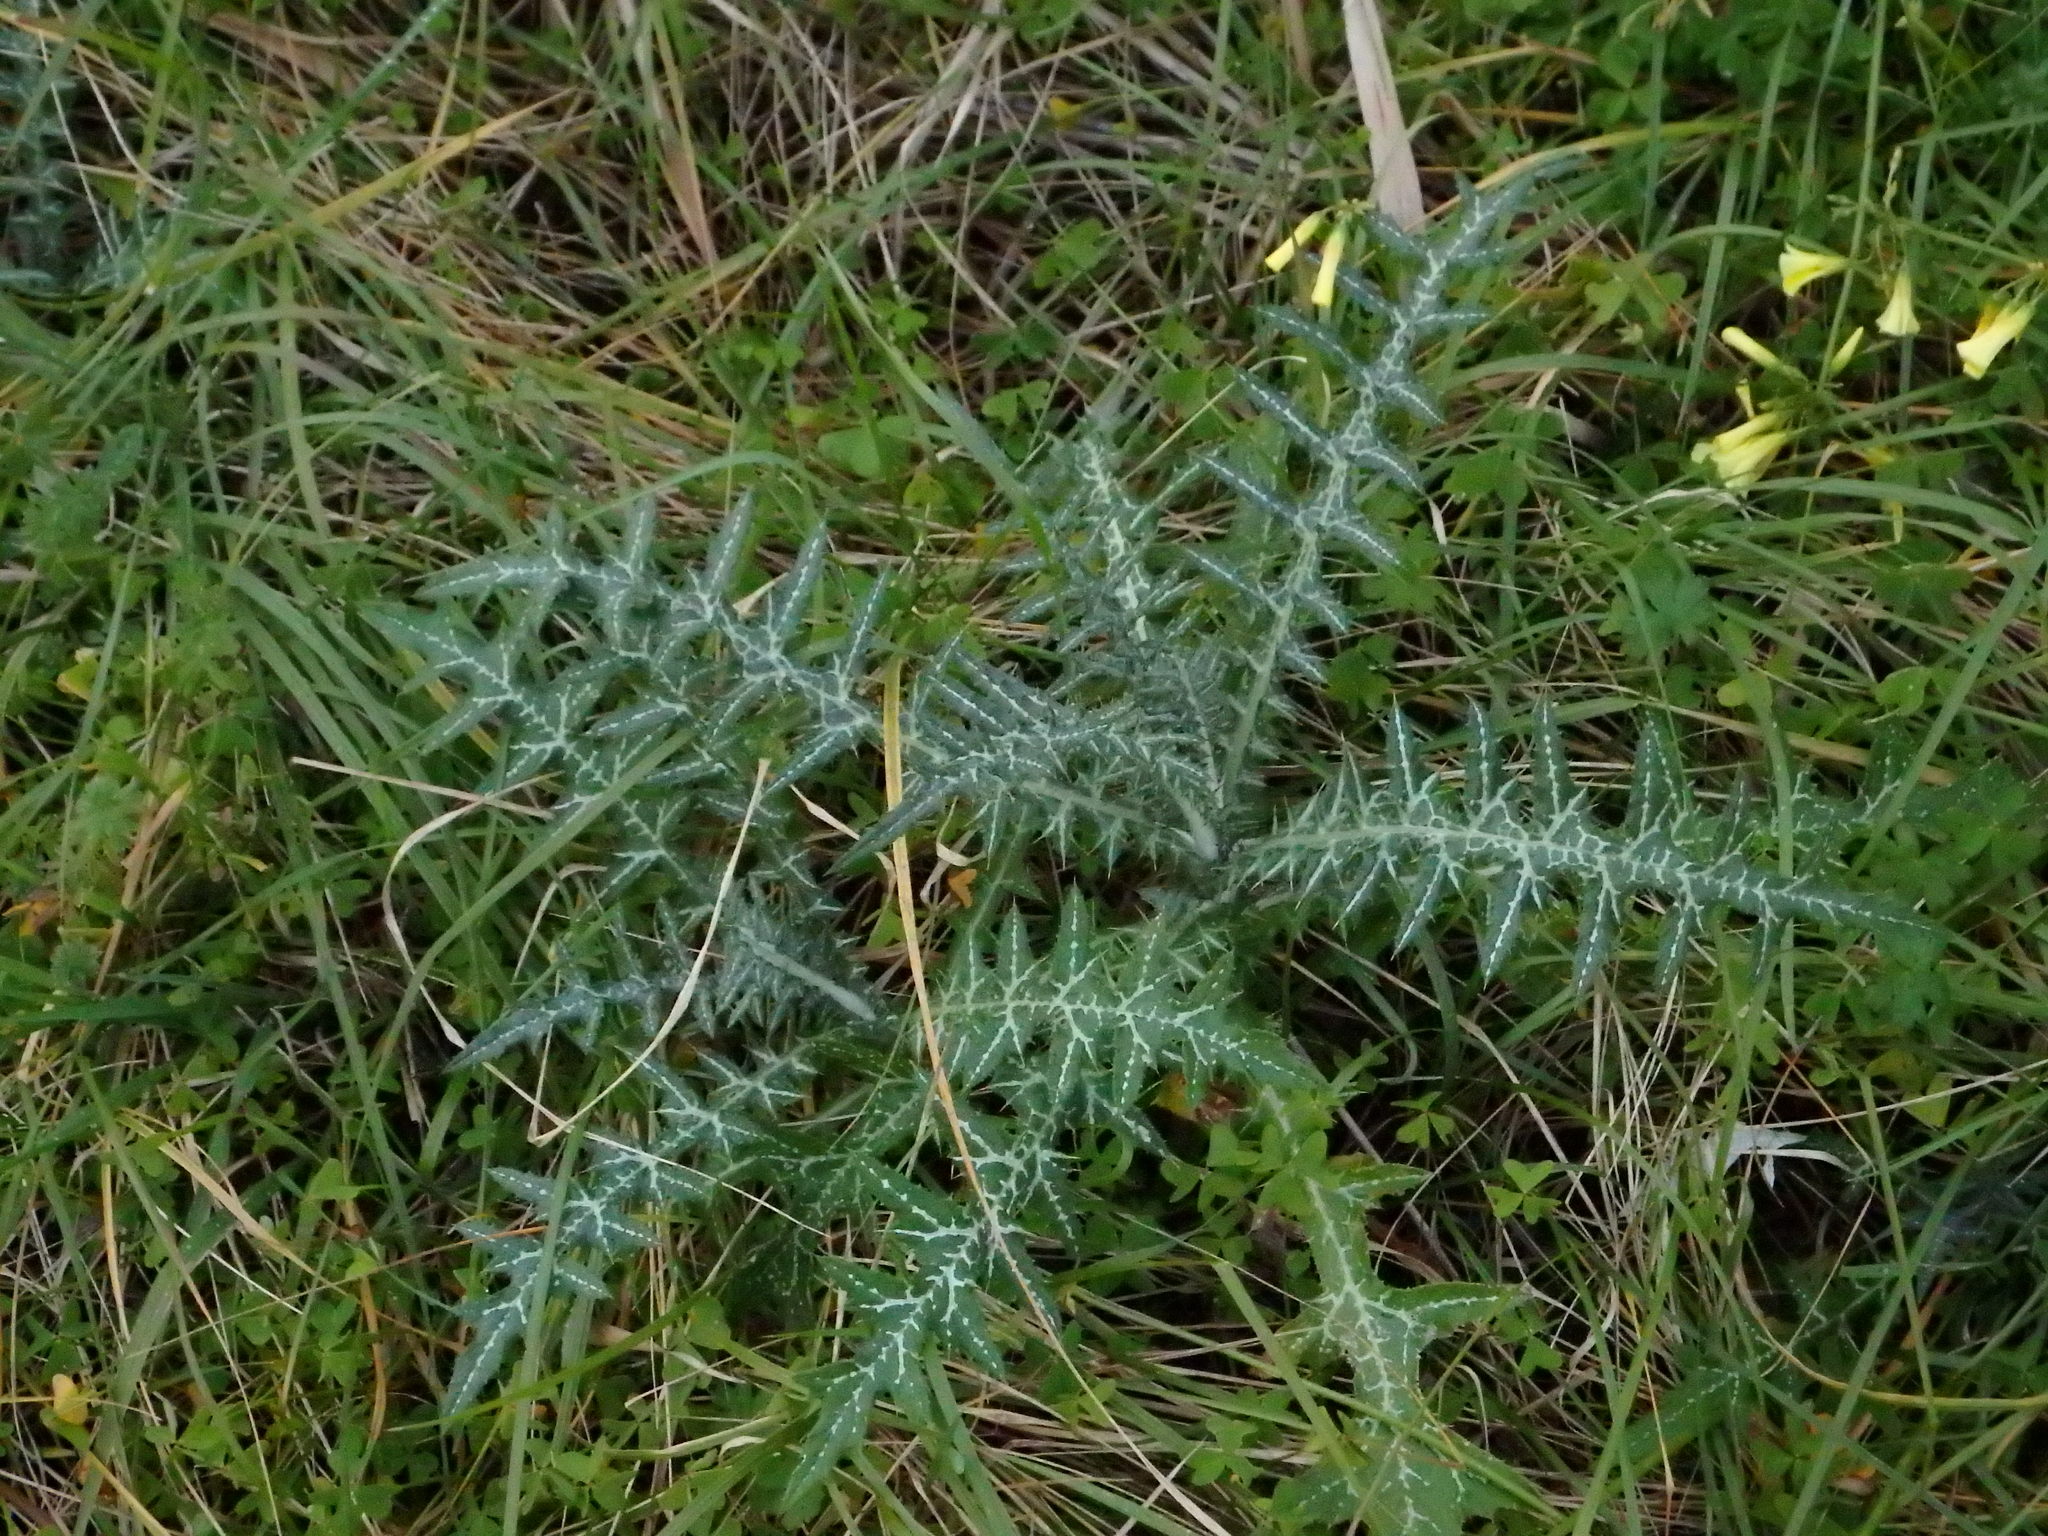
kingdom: Plantae
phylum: Tracheophyta
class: Magnoliopsida
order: Asterales
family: Asteraceae
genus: Galactites
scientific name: Galactites tomentosa
